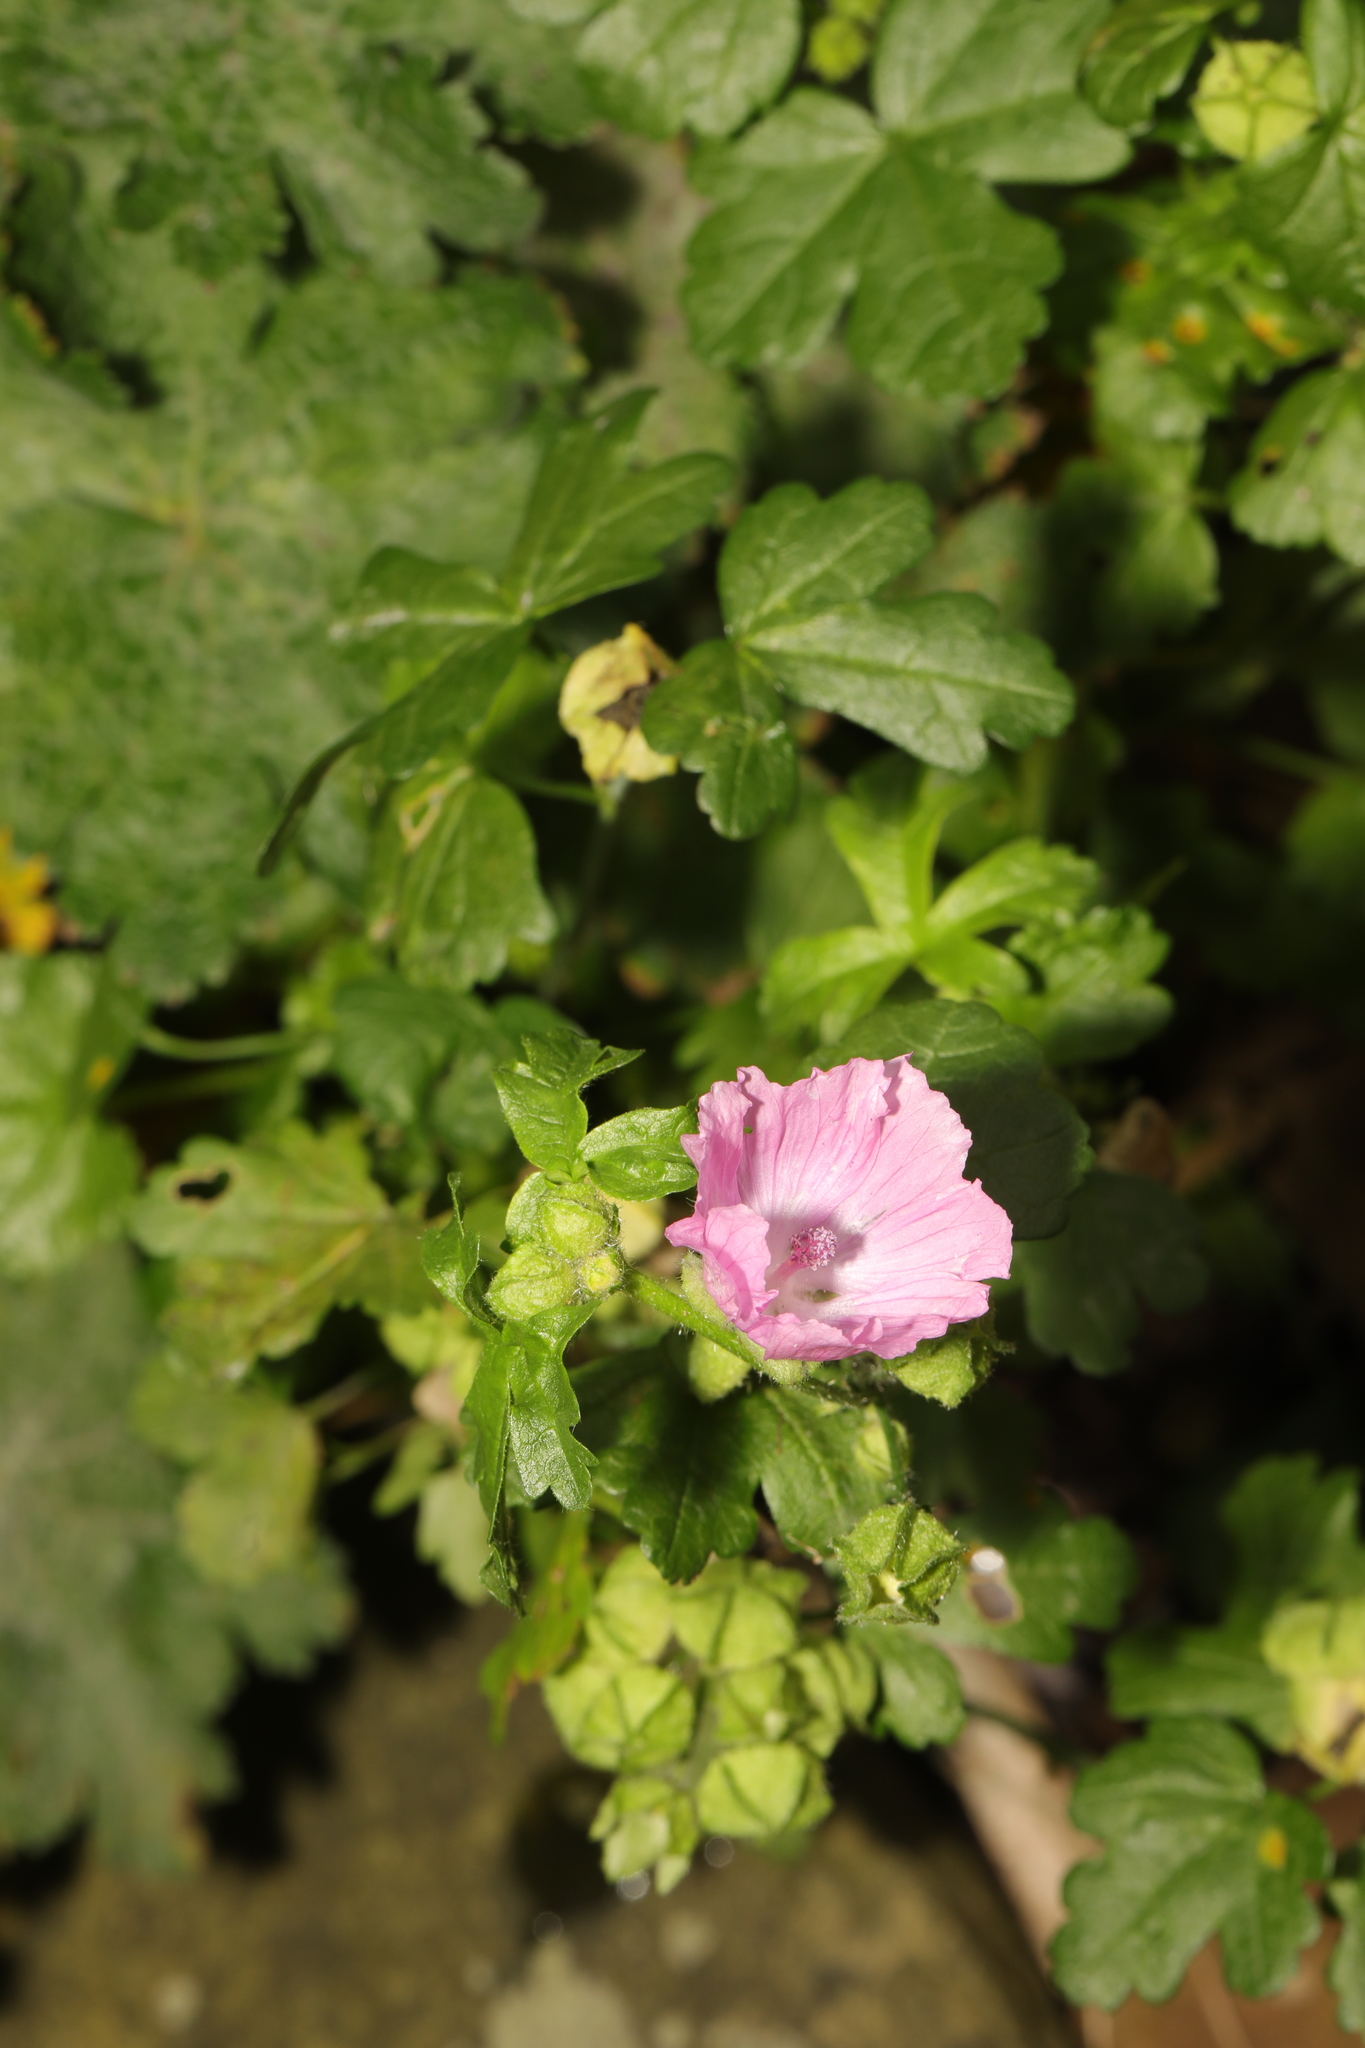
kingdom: Plantae
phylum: Tracheophyta
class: Magnoliopsida
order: Malvales
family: Malvaceae
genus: Malva
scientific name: Malva moschata
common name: Musk mallow
